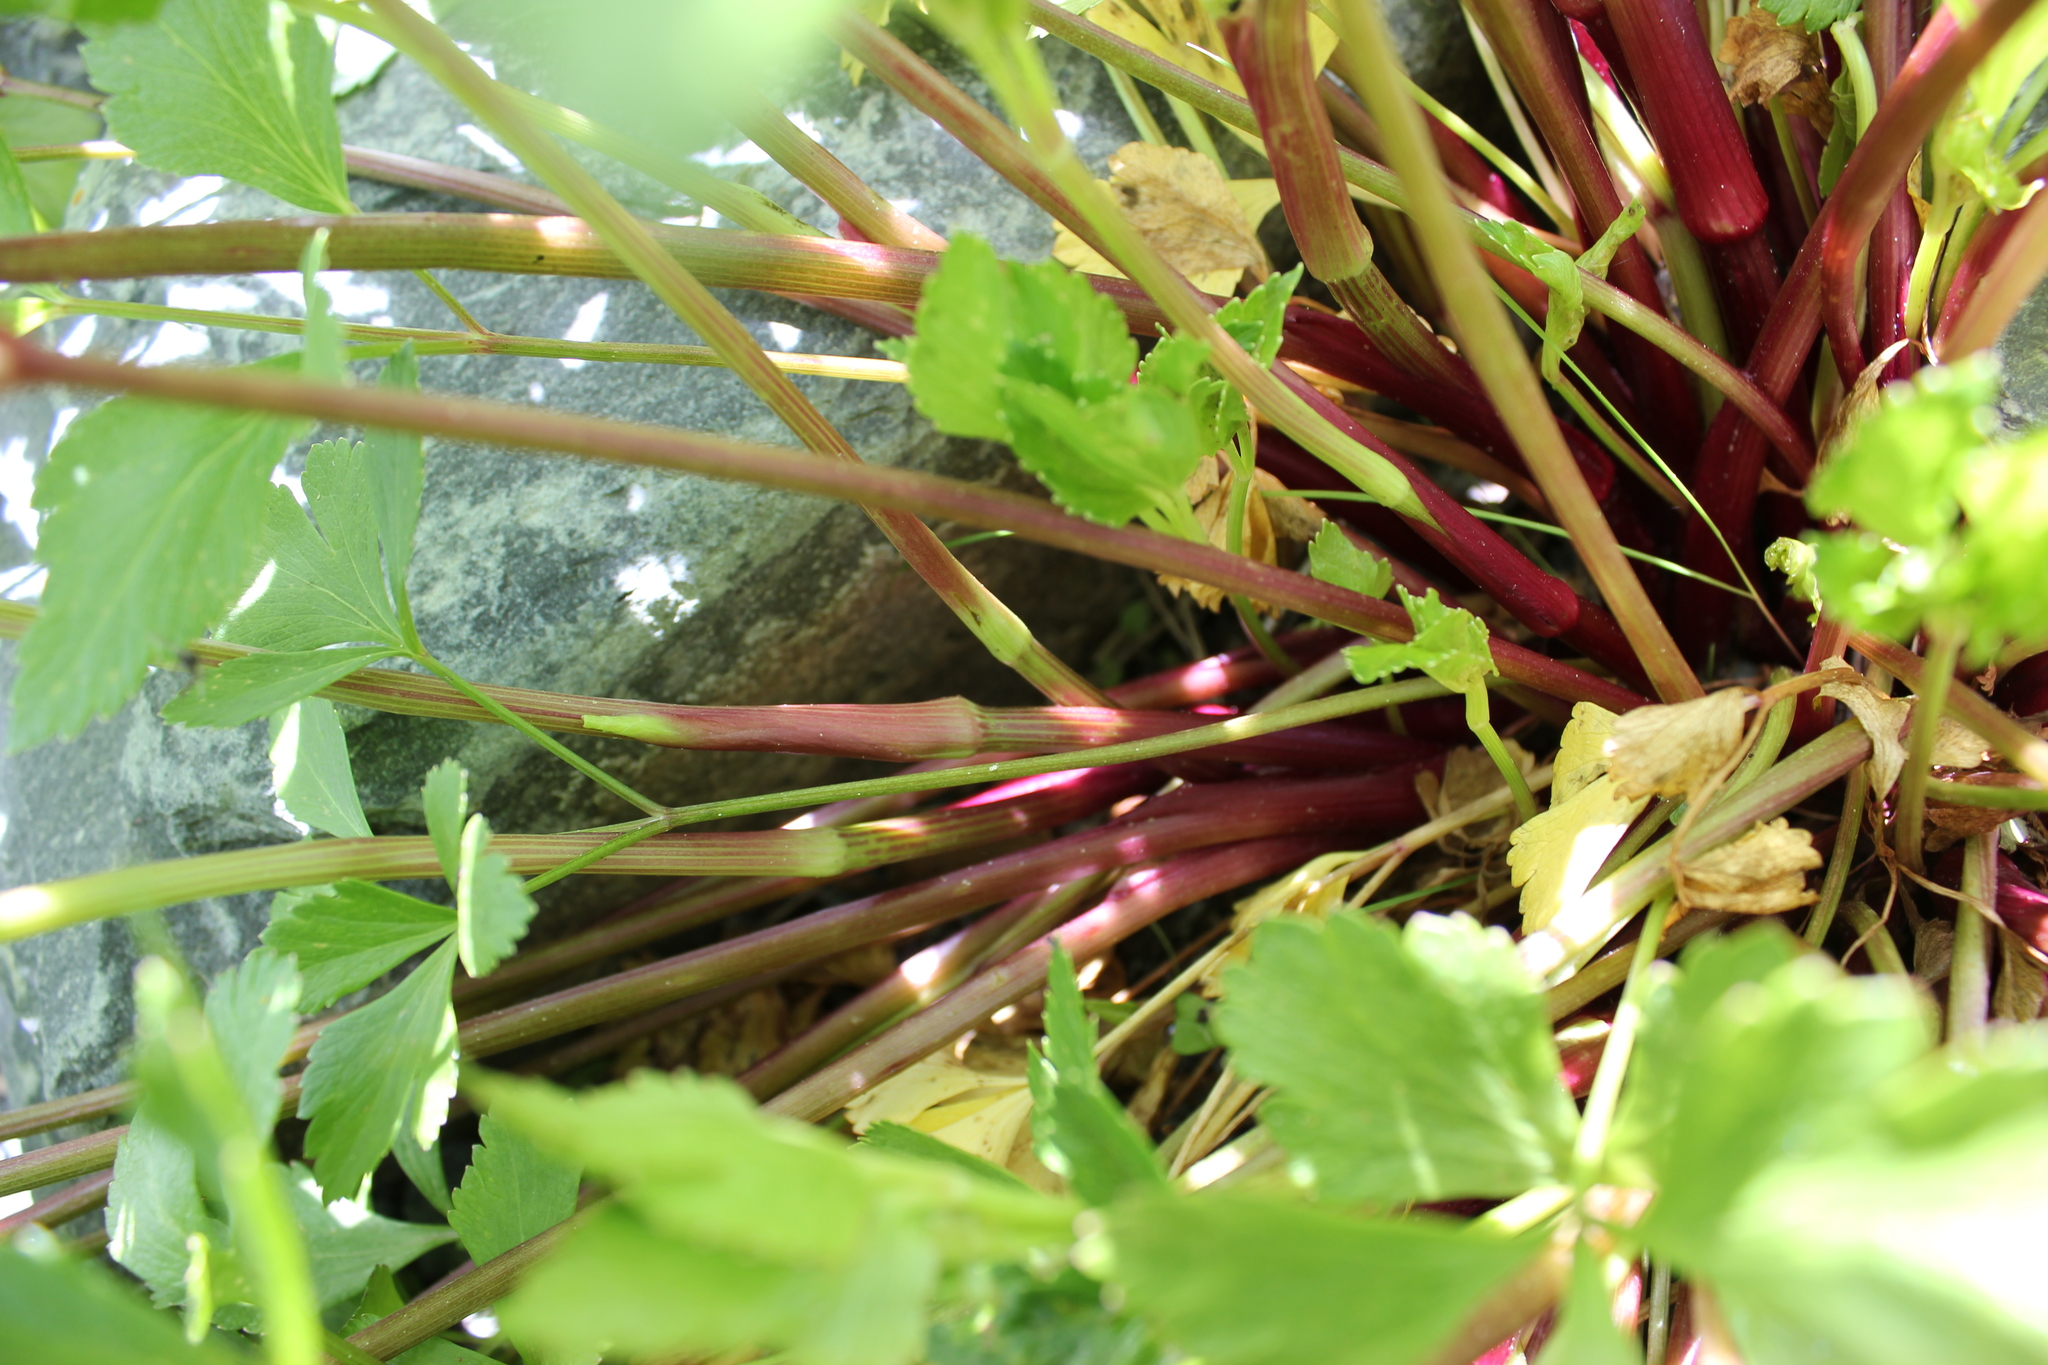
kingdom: Plantae
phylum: Tracheophyta
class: Magnoliopsida
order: Apiales
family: Apiaceae
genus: Ligusticum
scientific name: Ligusticum scothicum
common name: Beach lovage
